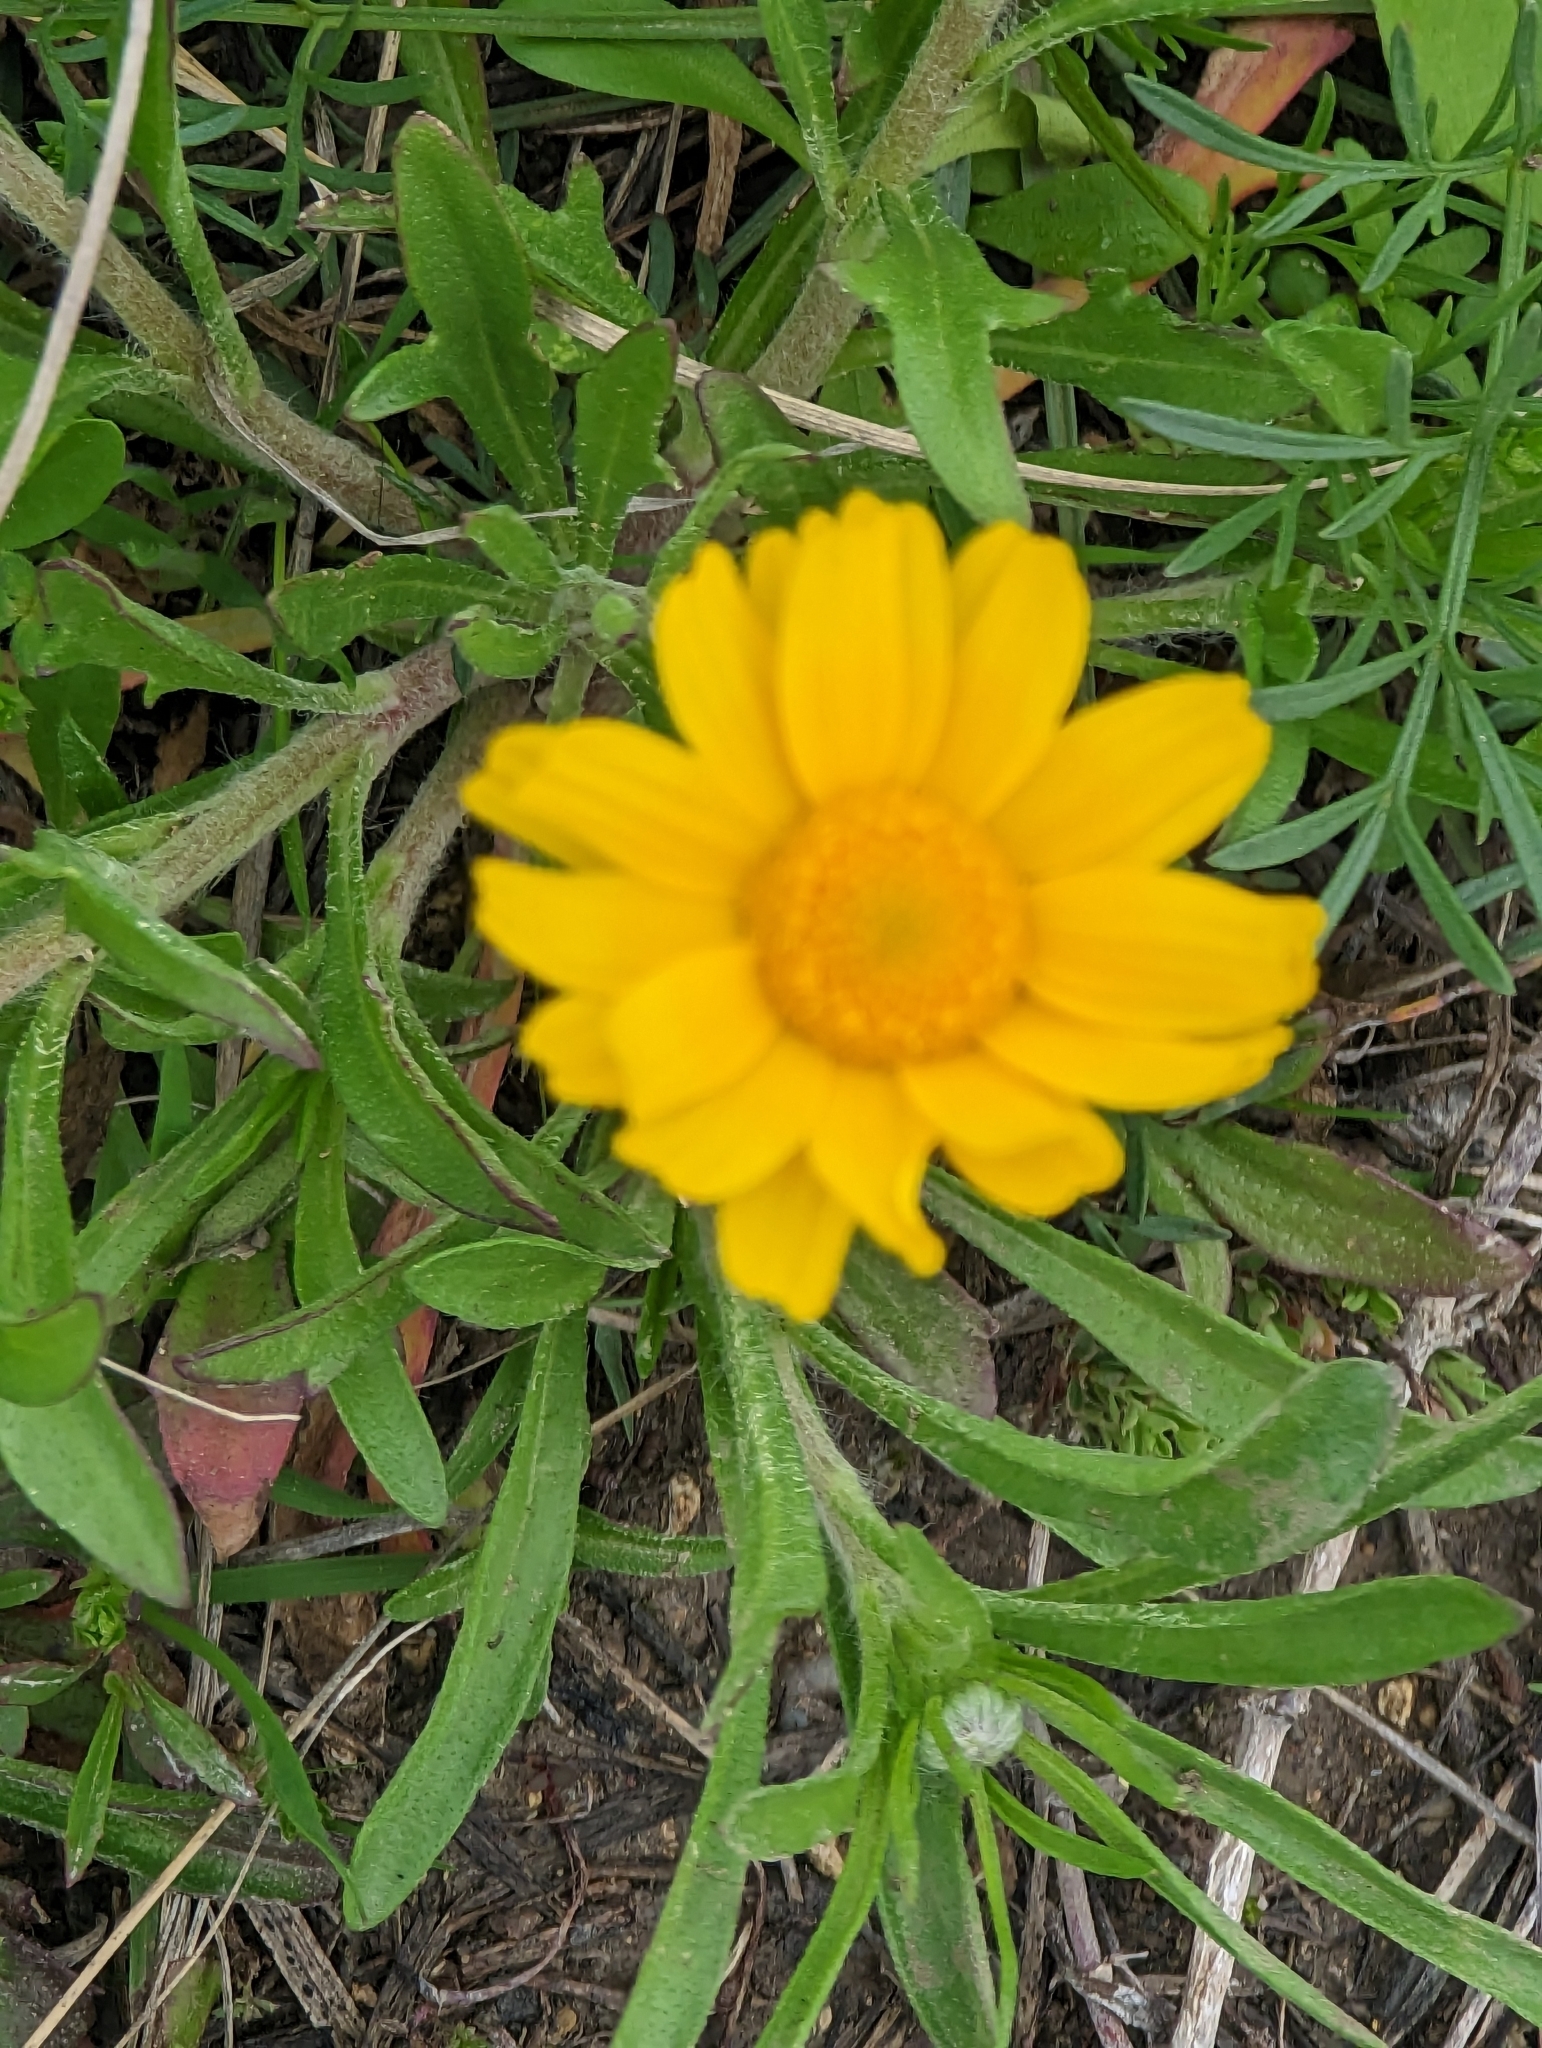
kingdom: Plantae
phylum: Tracheophyta
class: Magnoliopsida
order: Asterales
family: Asteraceae
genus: Tetraneuris
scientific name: Tetraneuris scaposa
